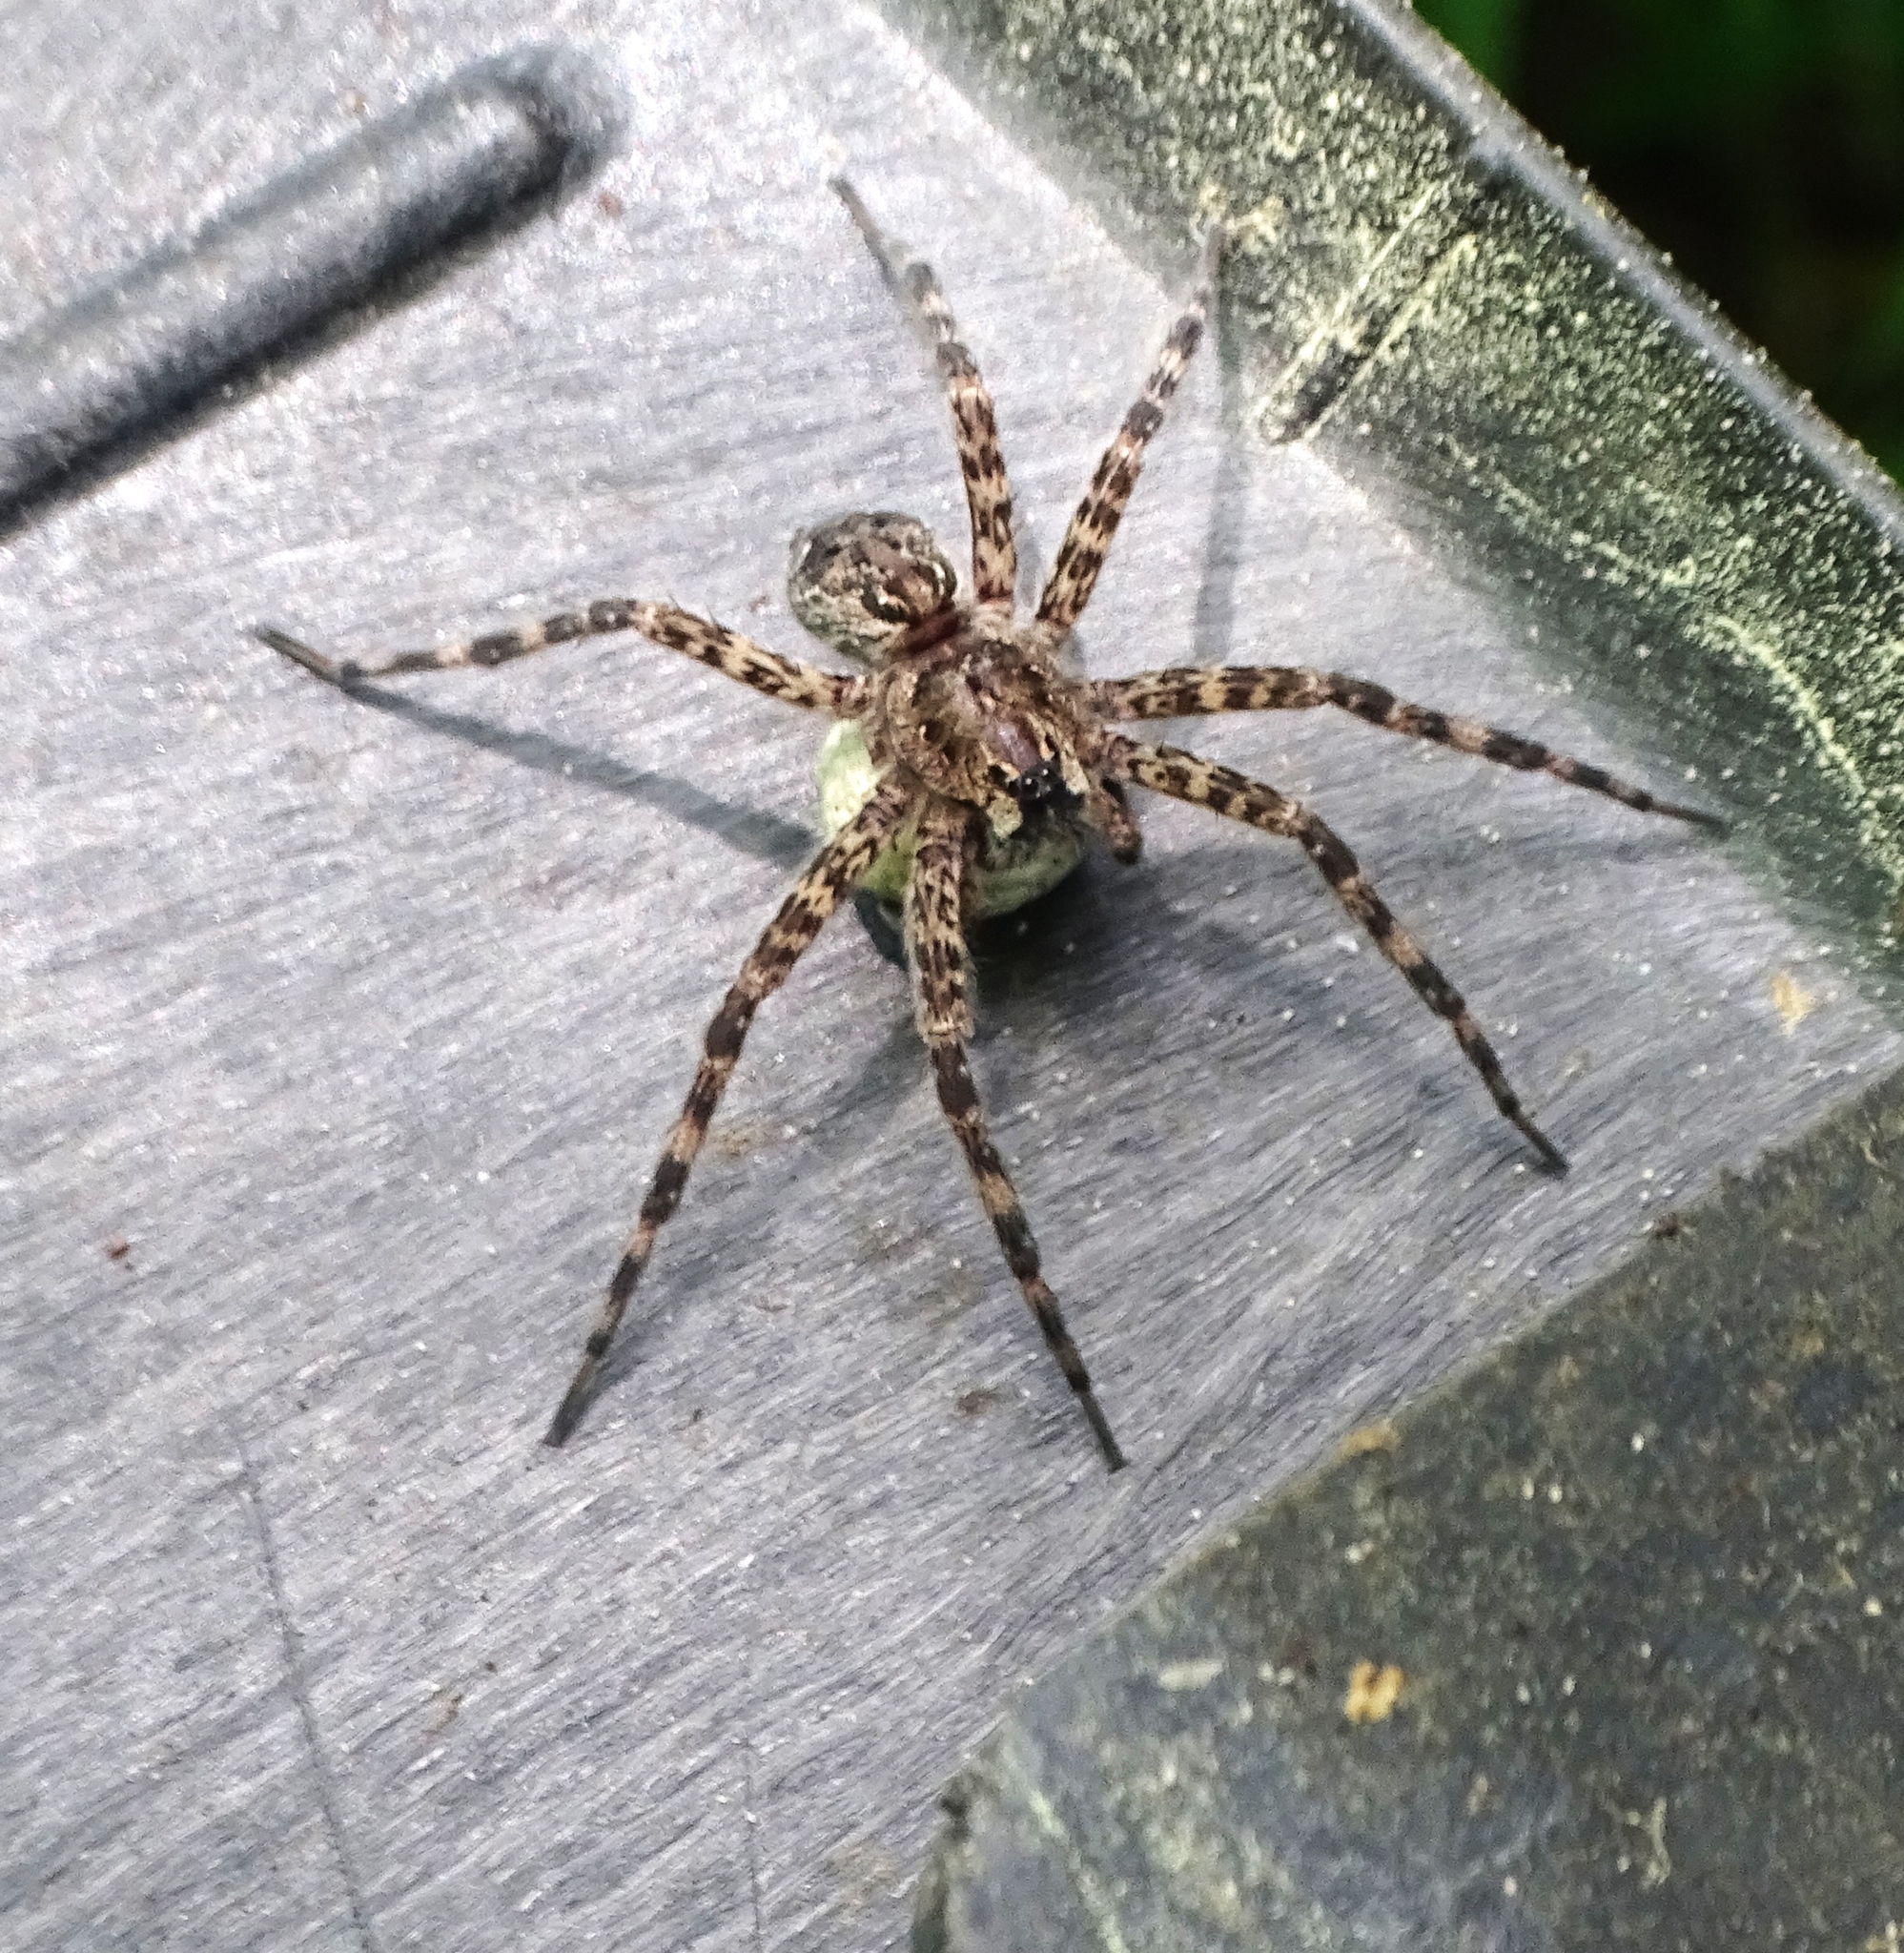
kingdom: Animalia
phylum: Arthropoda
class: Arachnida
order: Araneae
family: Pisauridae
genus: Dolomedes
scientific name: Dolomedes tenebrosus
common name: Dark fishing spider
